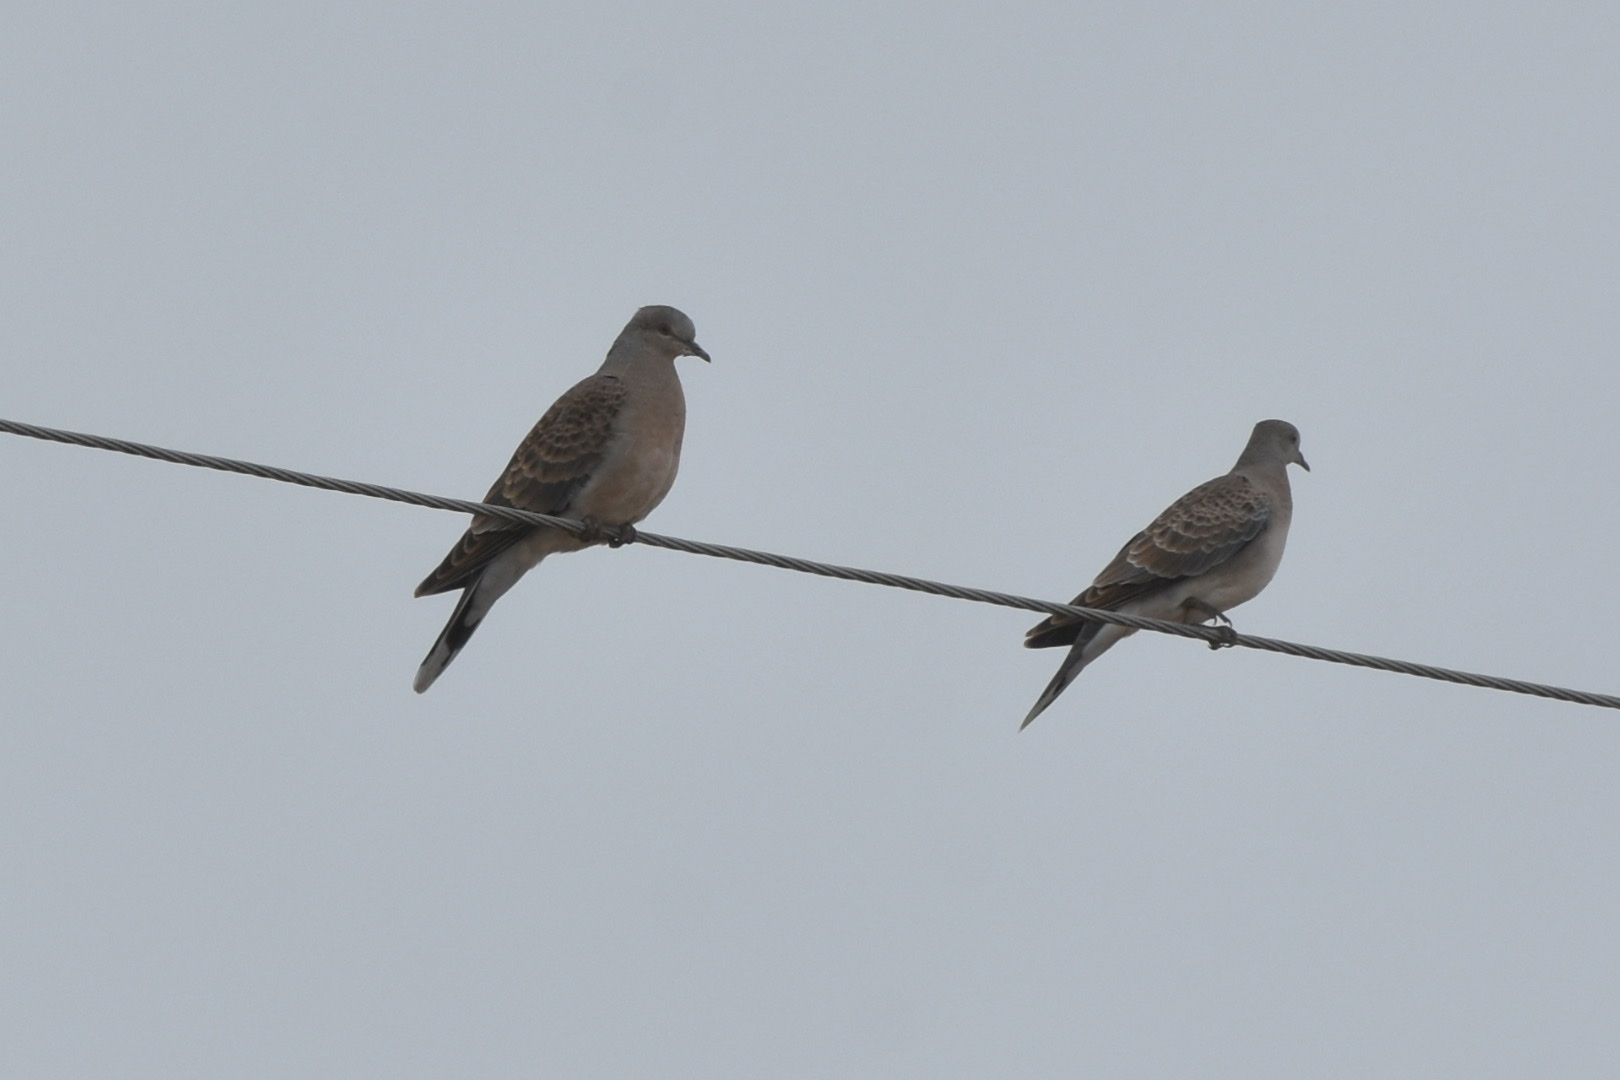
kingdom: Animalia
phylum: Chordata
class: Aves
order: Columbiformes
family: Columbidae
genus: Streptopelia
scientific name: Streptopelia orientalis
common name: Oriental turtle dove
